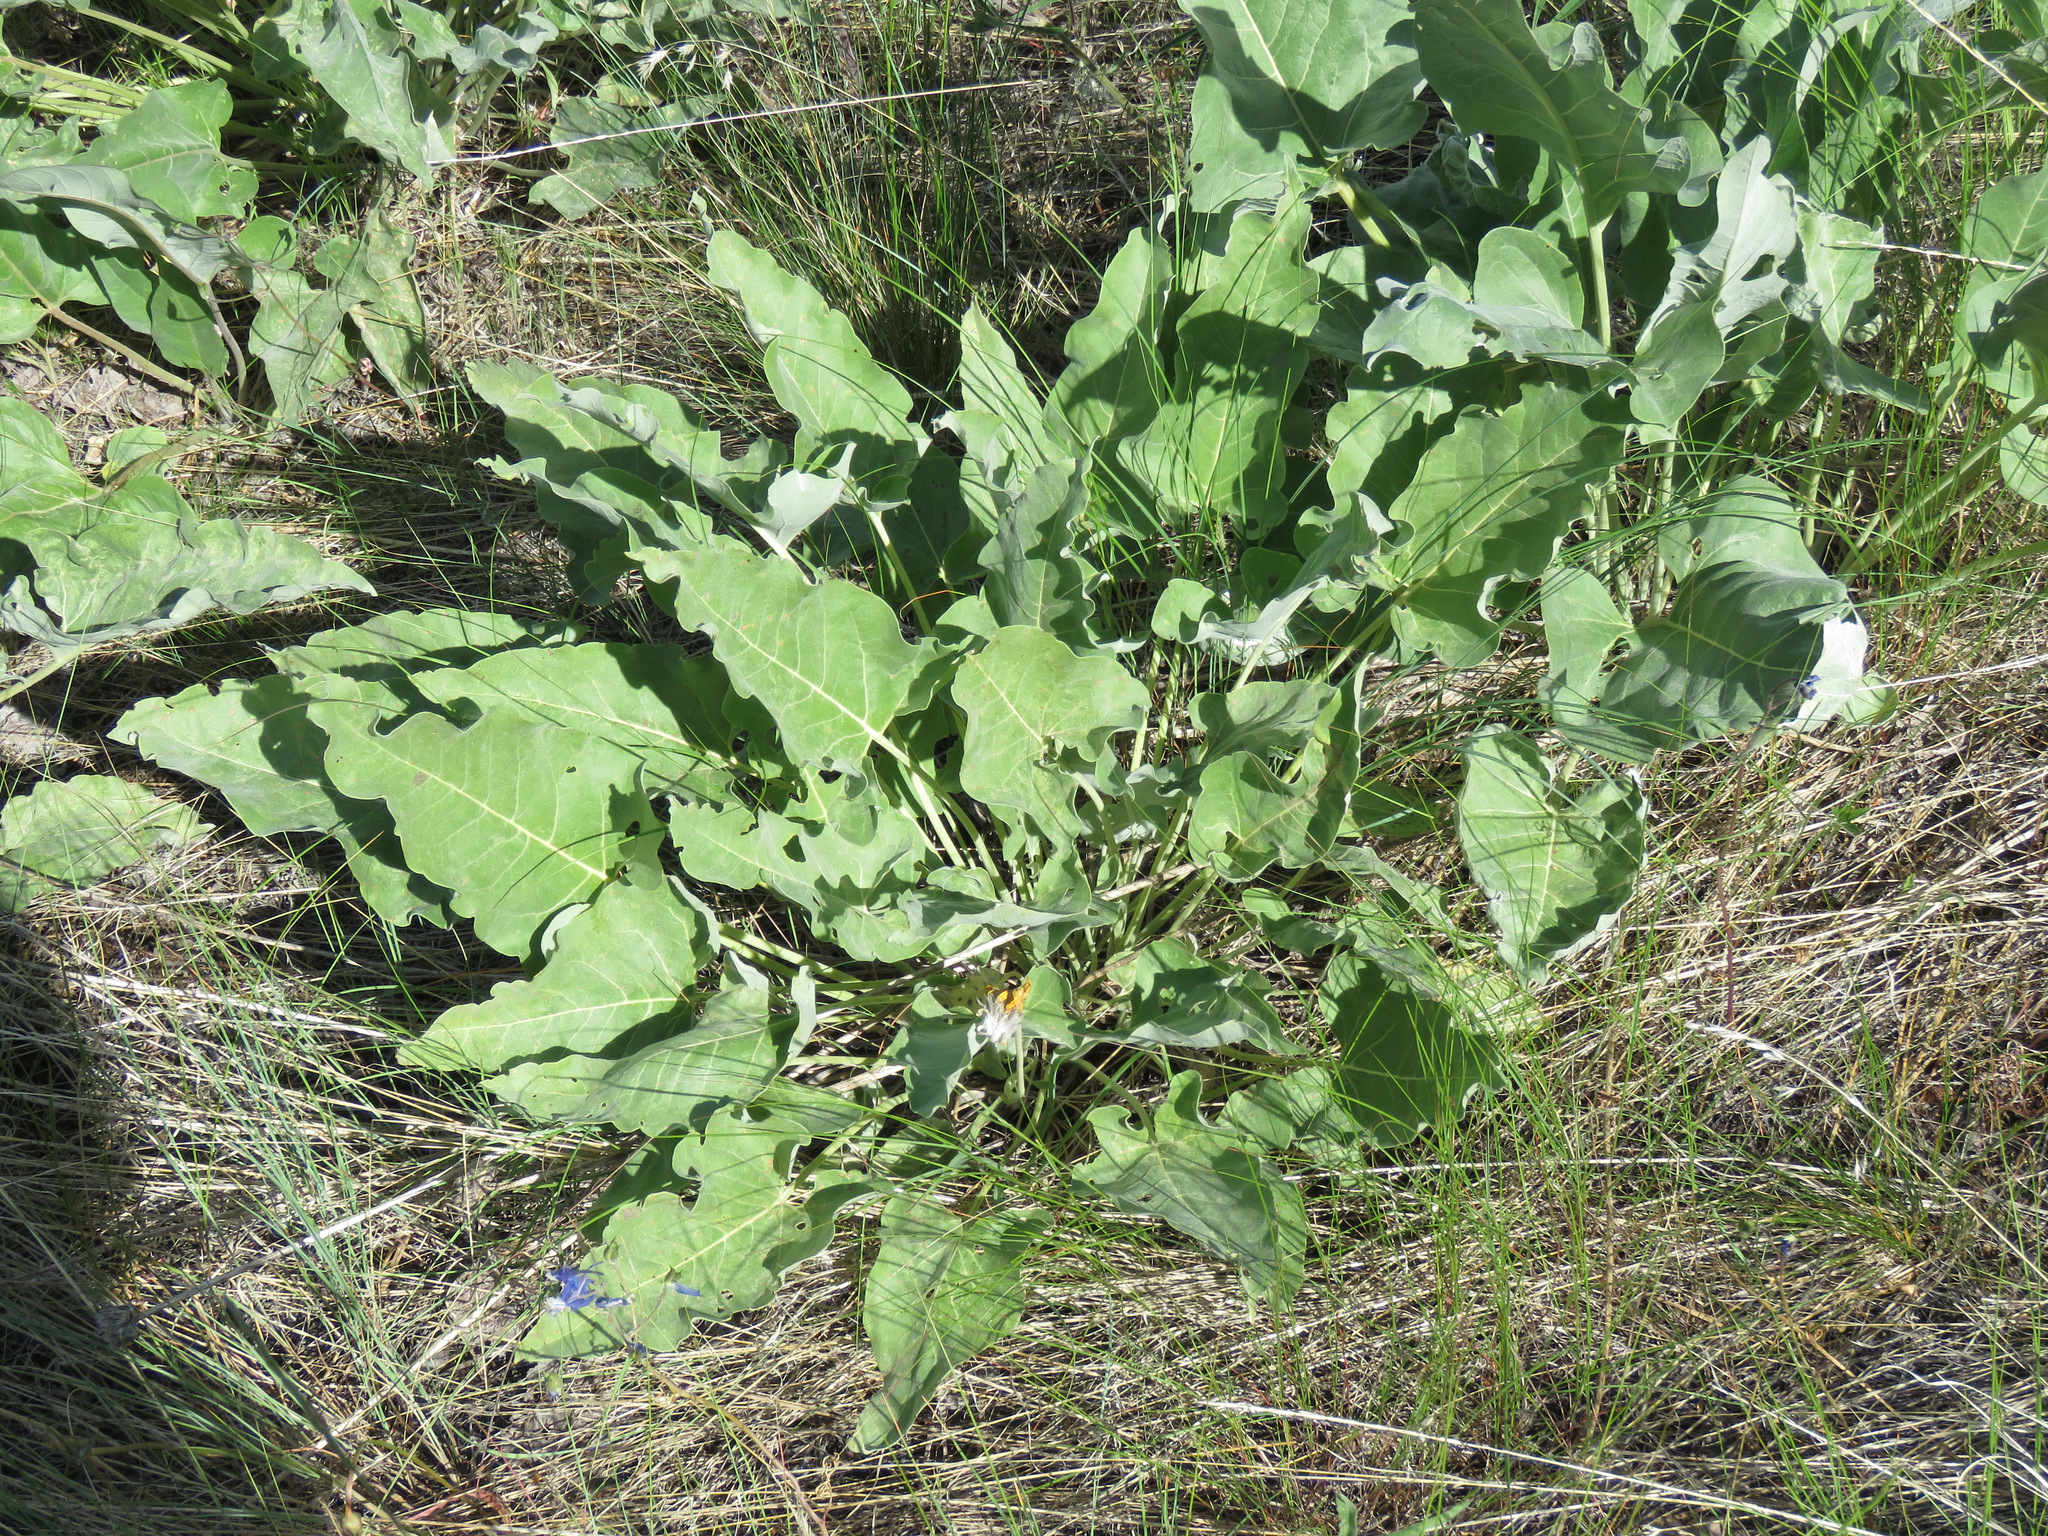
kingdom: Plantae
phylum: Tracheophyta
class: Magnoliopsida
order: Asterales
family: Asteraceae
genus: Wyethia
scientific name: Wyethia sagittata
